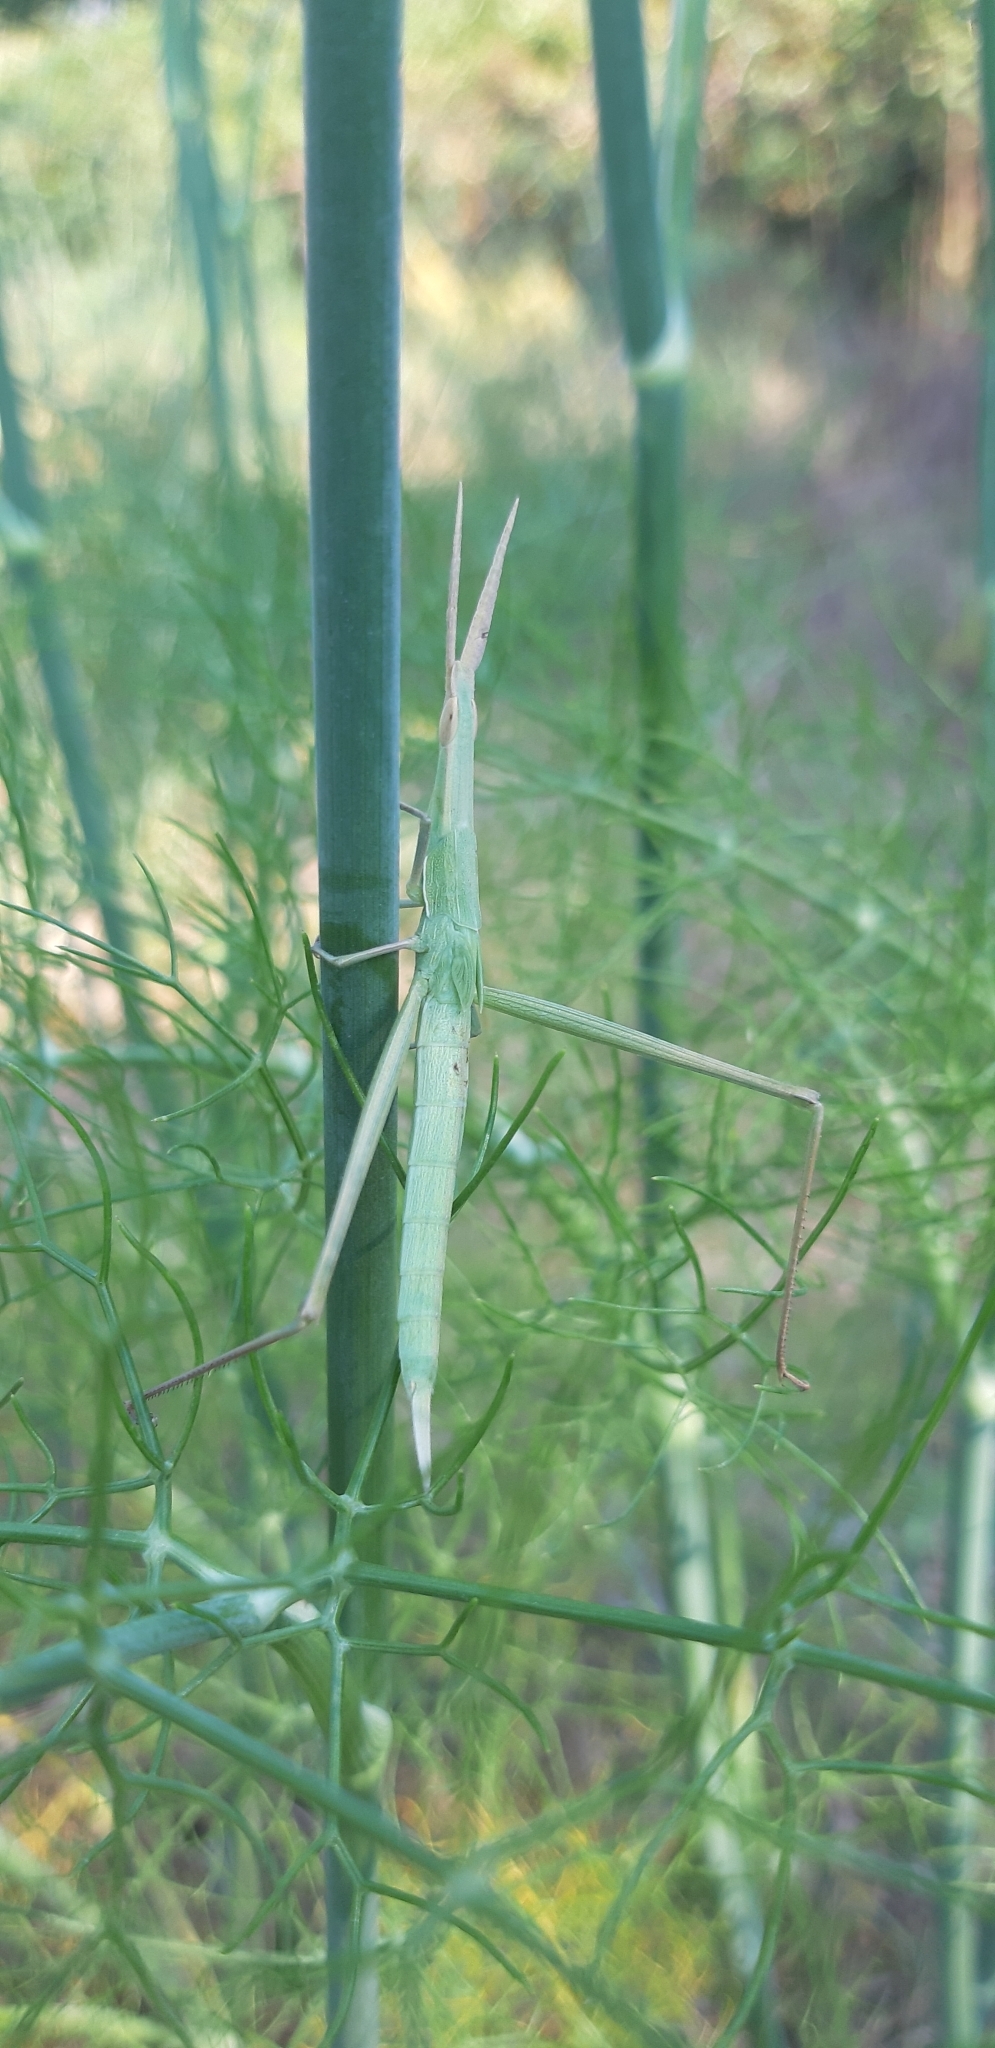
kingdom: Animalia
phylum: Arthropoda
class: Insecta
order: Orthoptera
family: Acrididae
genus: Acrida
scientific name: Acrida ungarica
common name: Common cone-headed grasshopper
